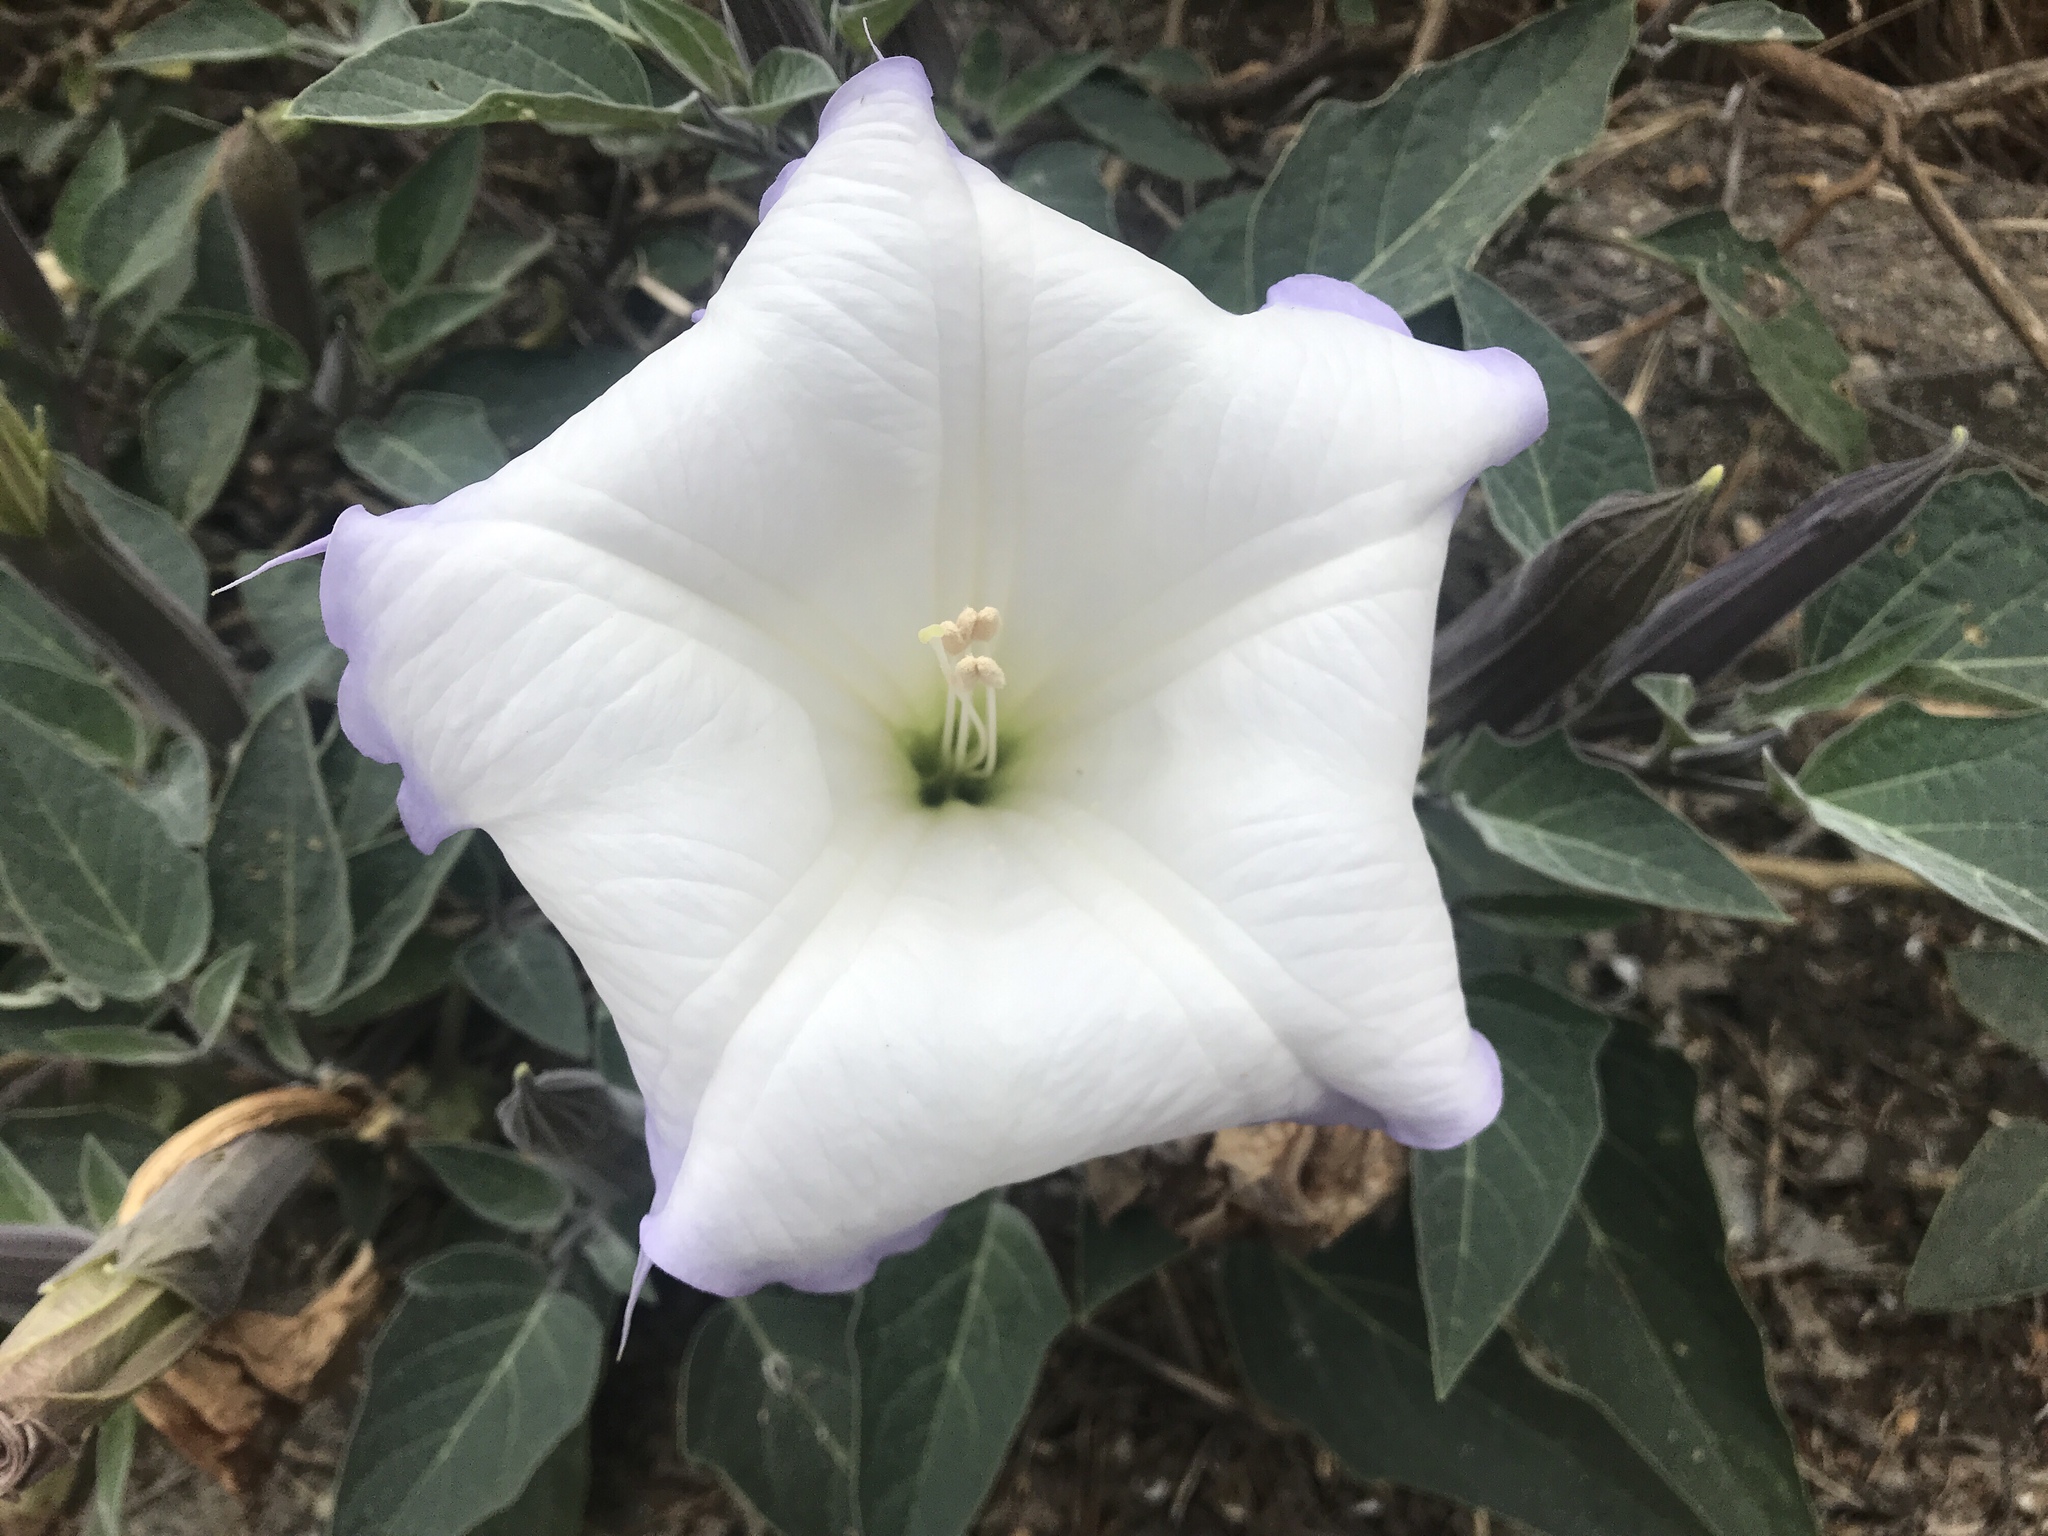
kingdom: Plantae
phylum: Tracheophyta
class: Magnoliopsida
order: Solanales
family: Solanaceae
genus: Datura
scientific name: Datura wrightii
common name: Sacred thorn-apple
